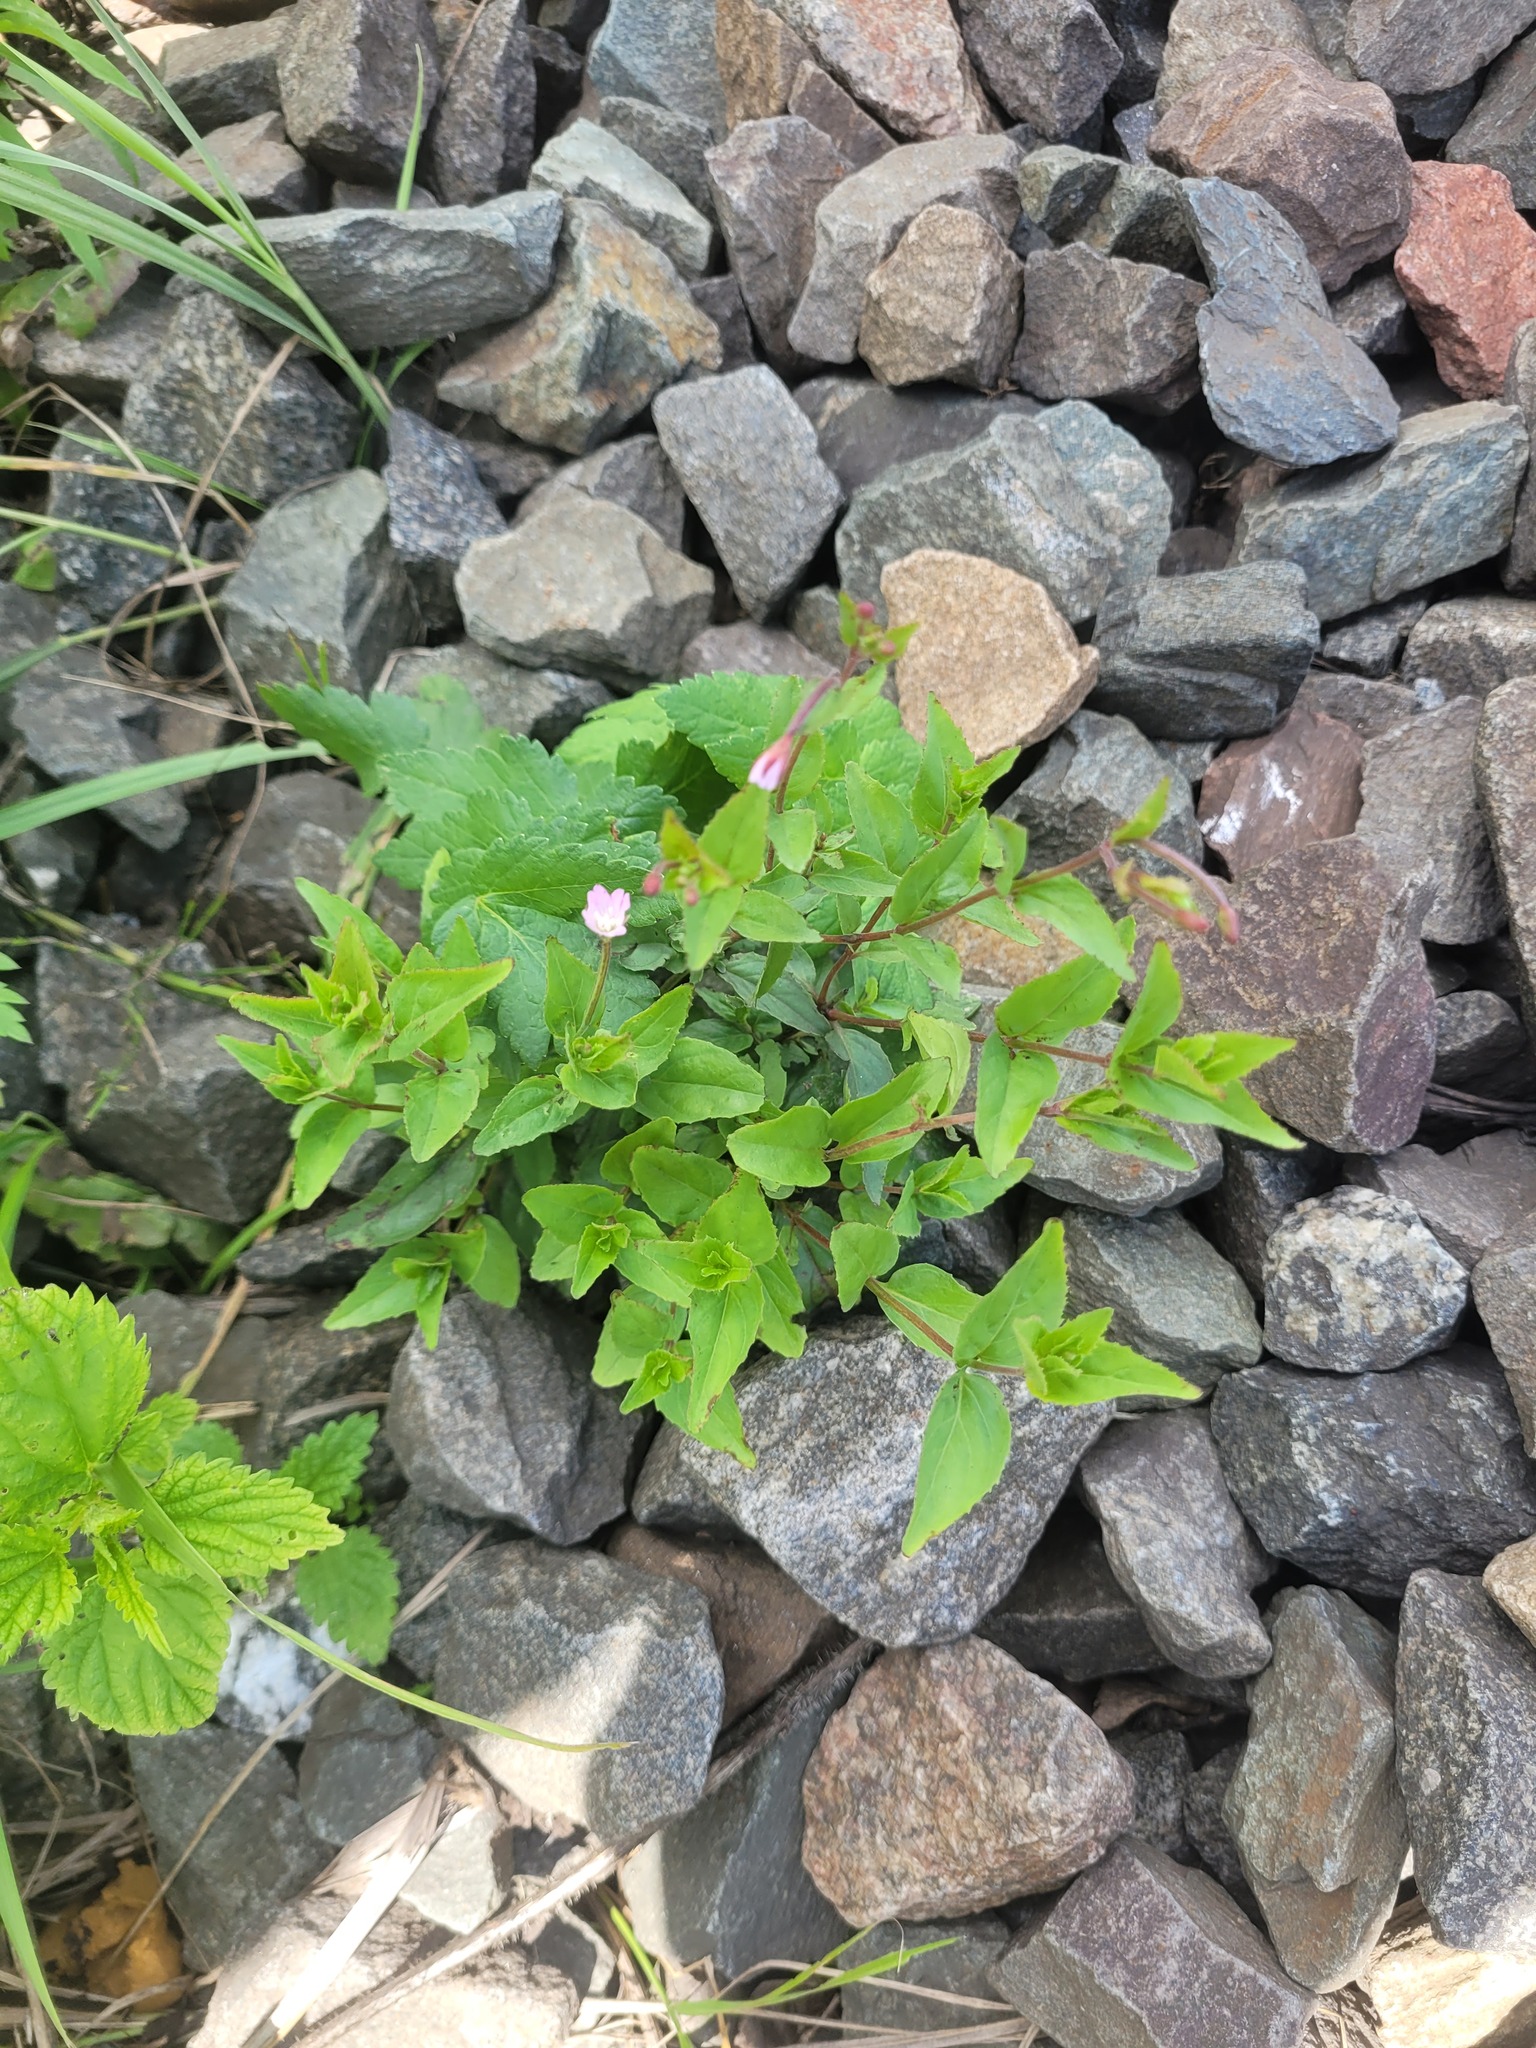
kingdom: Plantae
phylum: Tracheophyta
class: Magnoliopsida
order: Myrtales
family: Onagraceae
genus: Epilobium
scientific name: Epilobium montanum
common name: Broad-leaved willowherb
